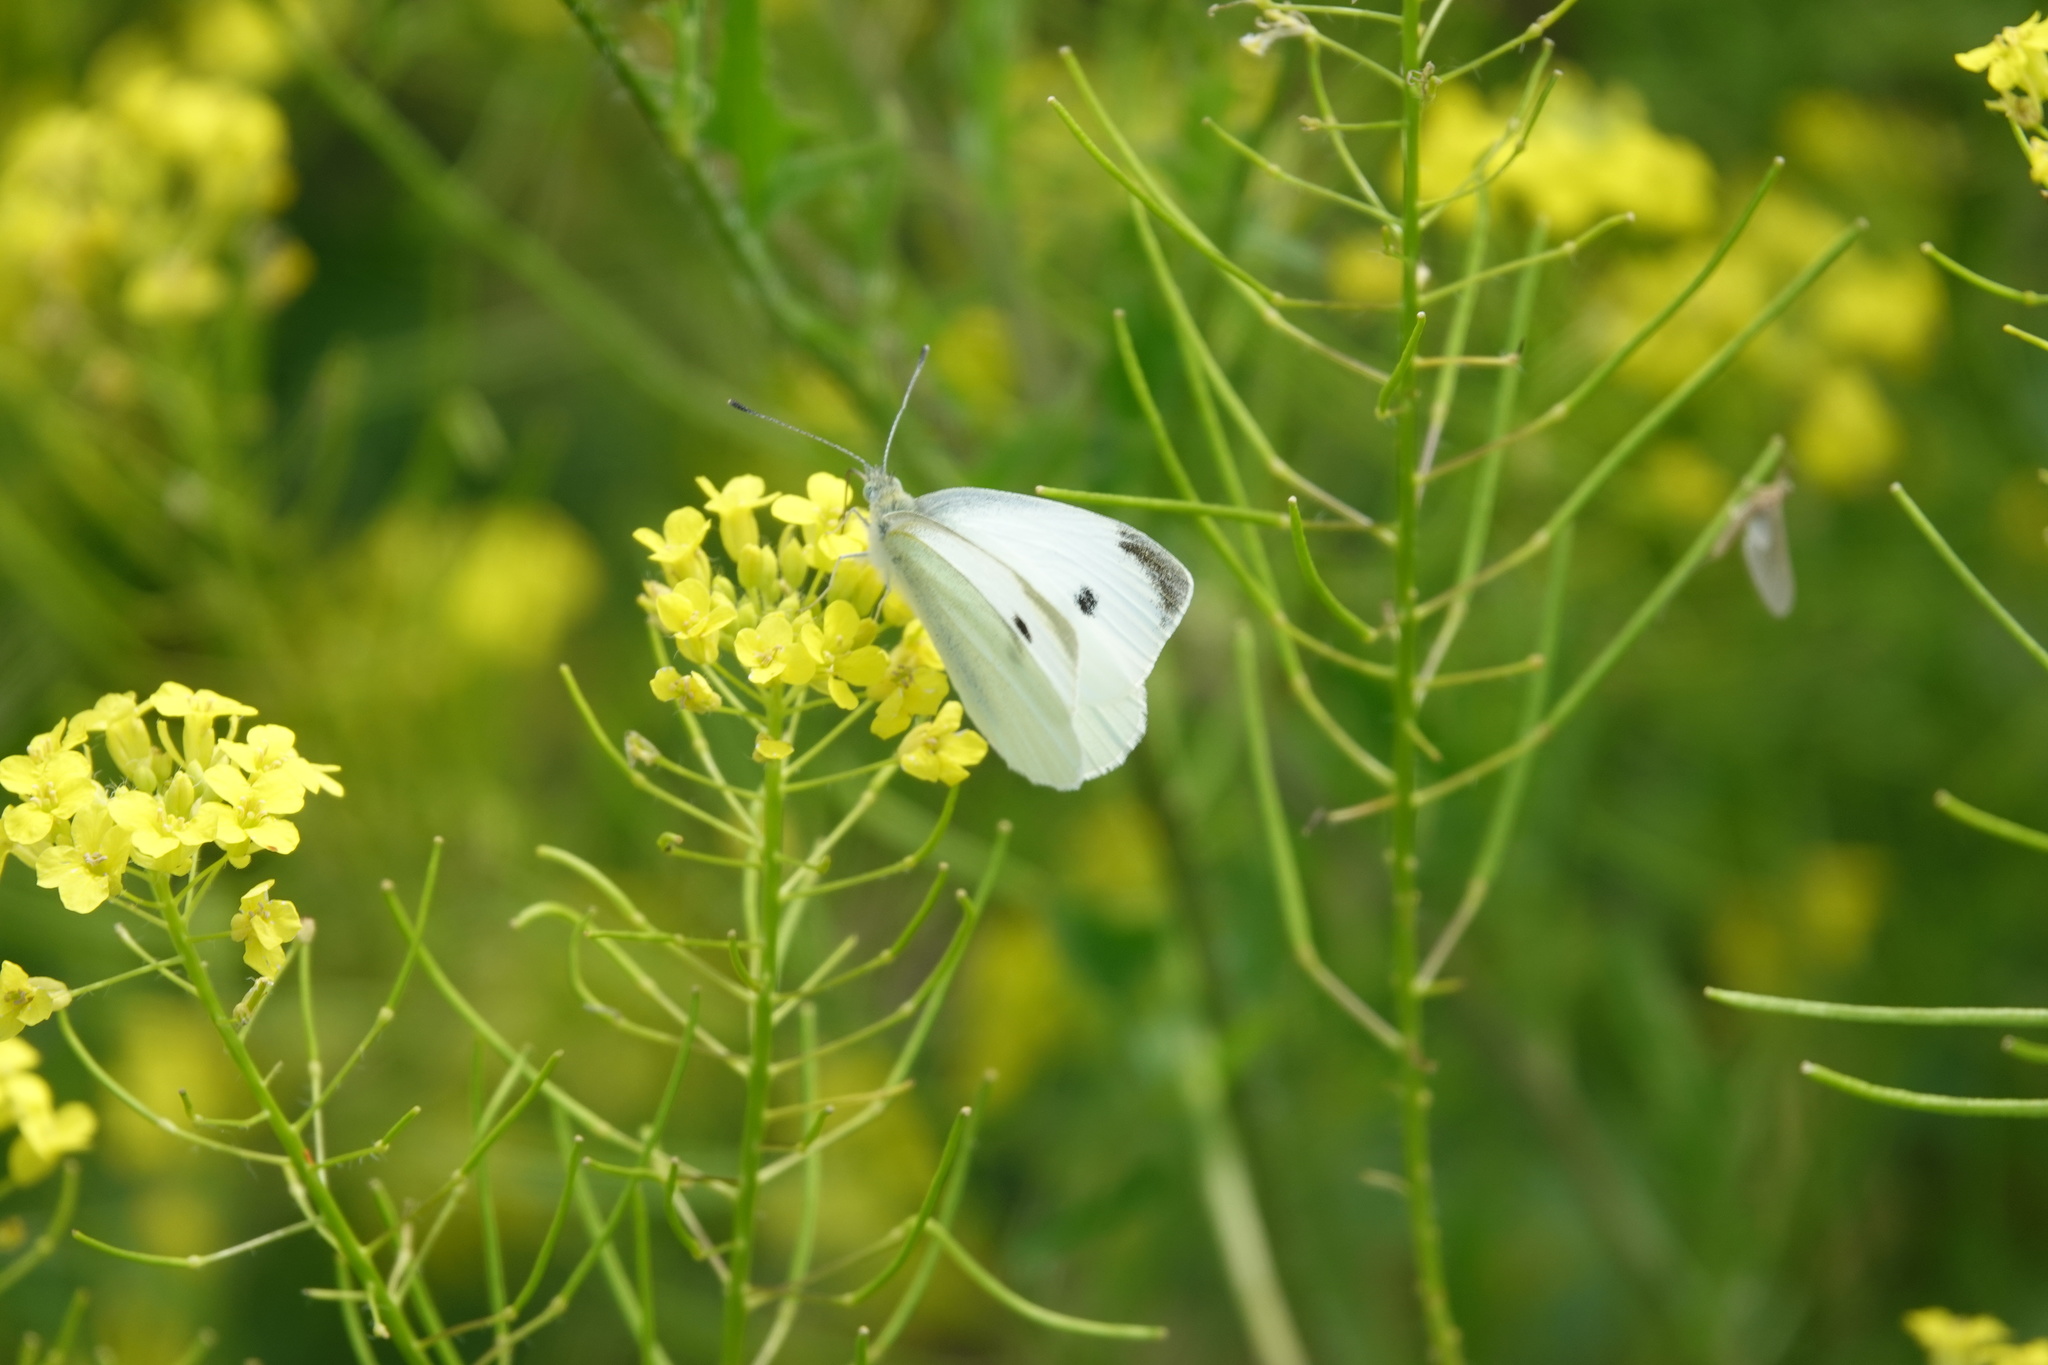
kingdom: Animalia
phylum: Arthropoda
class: Insecta
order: Lepidoptera
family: Pieridae
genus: Pieris
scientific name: Pieris rapae
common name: Small white
